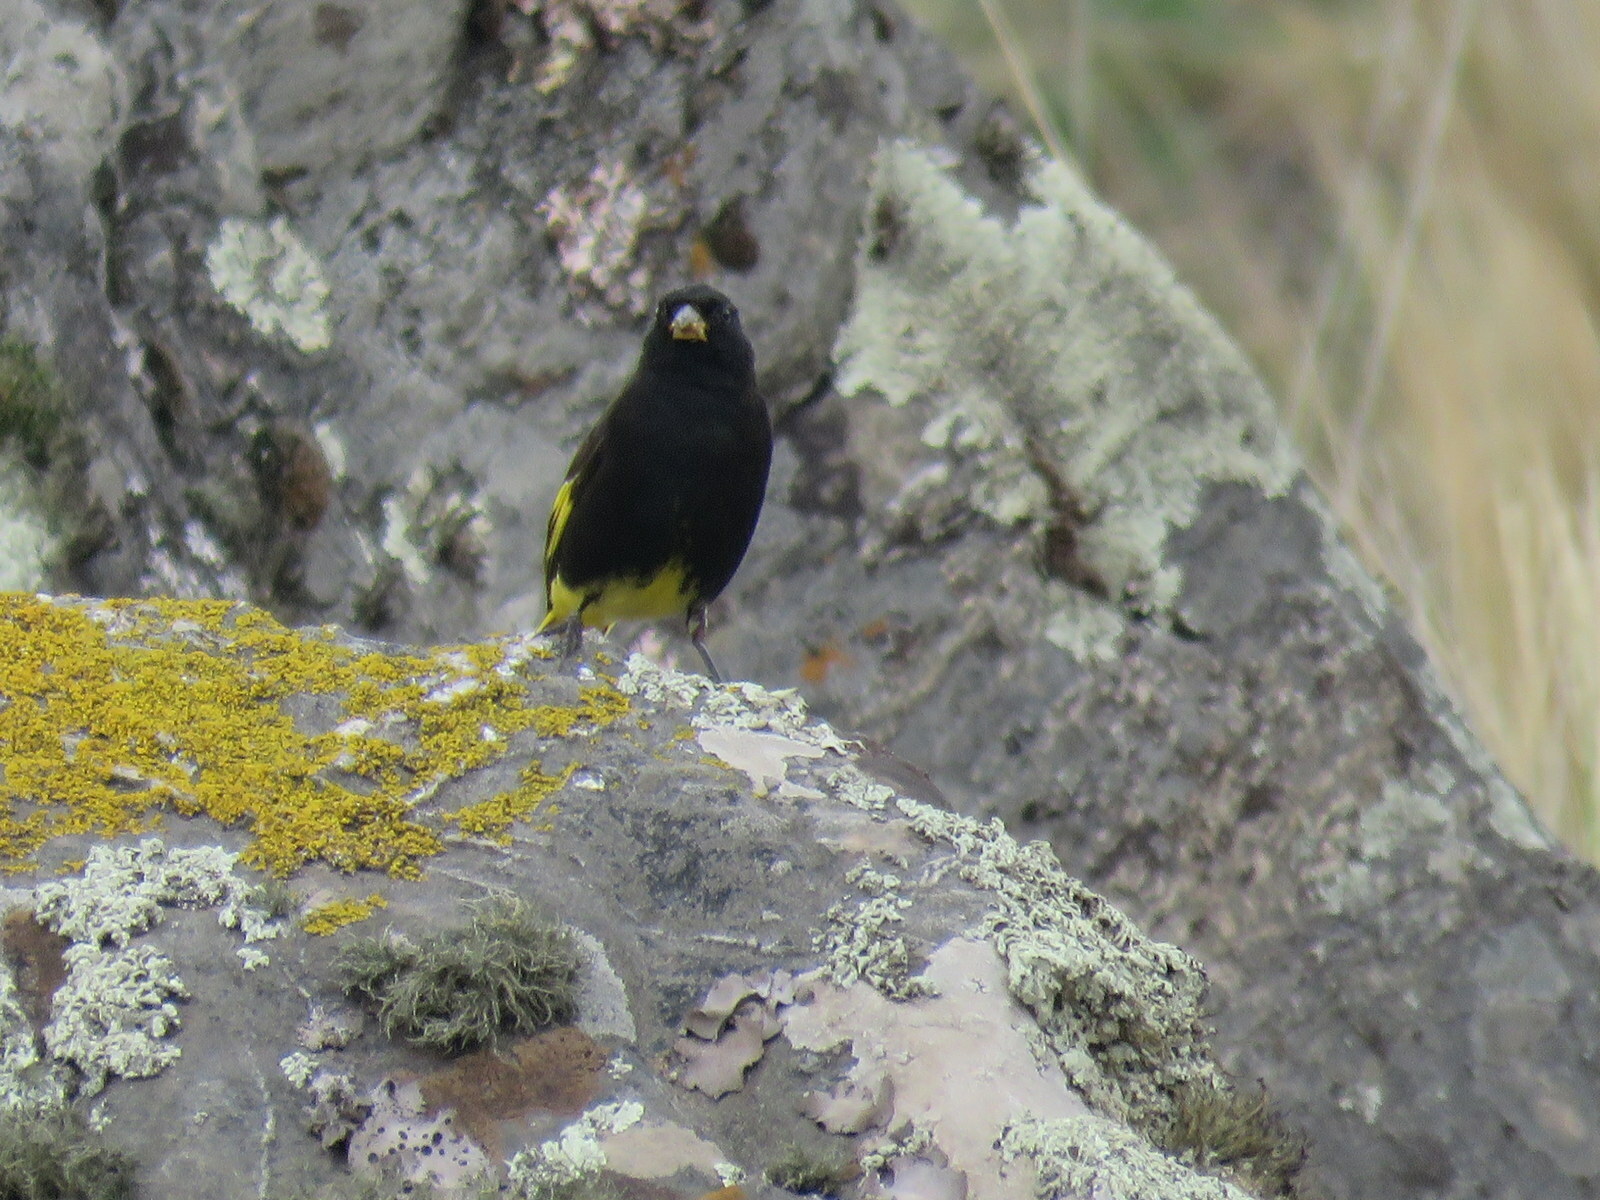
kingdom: Animalia
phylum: Chordata
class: Aves
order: Passeriformes
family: Fringillidae
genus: Spinus
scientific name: Spinus atratus
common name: Black siskin
